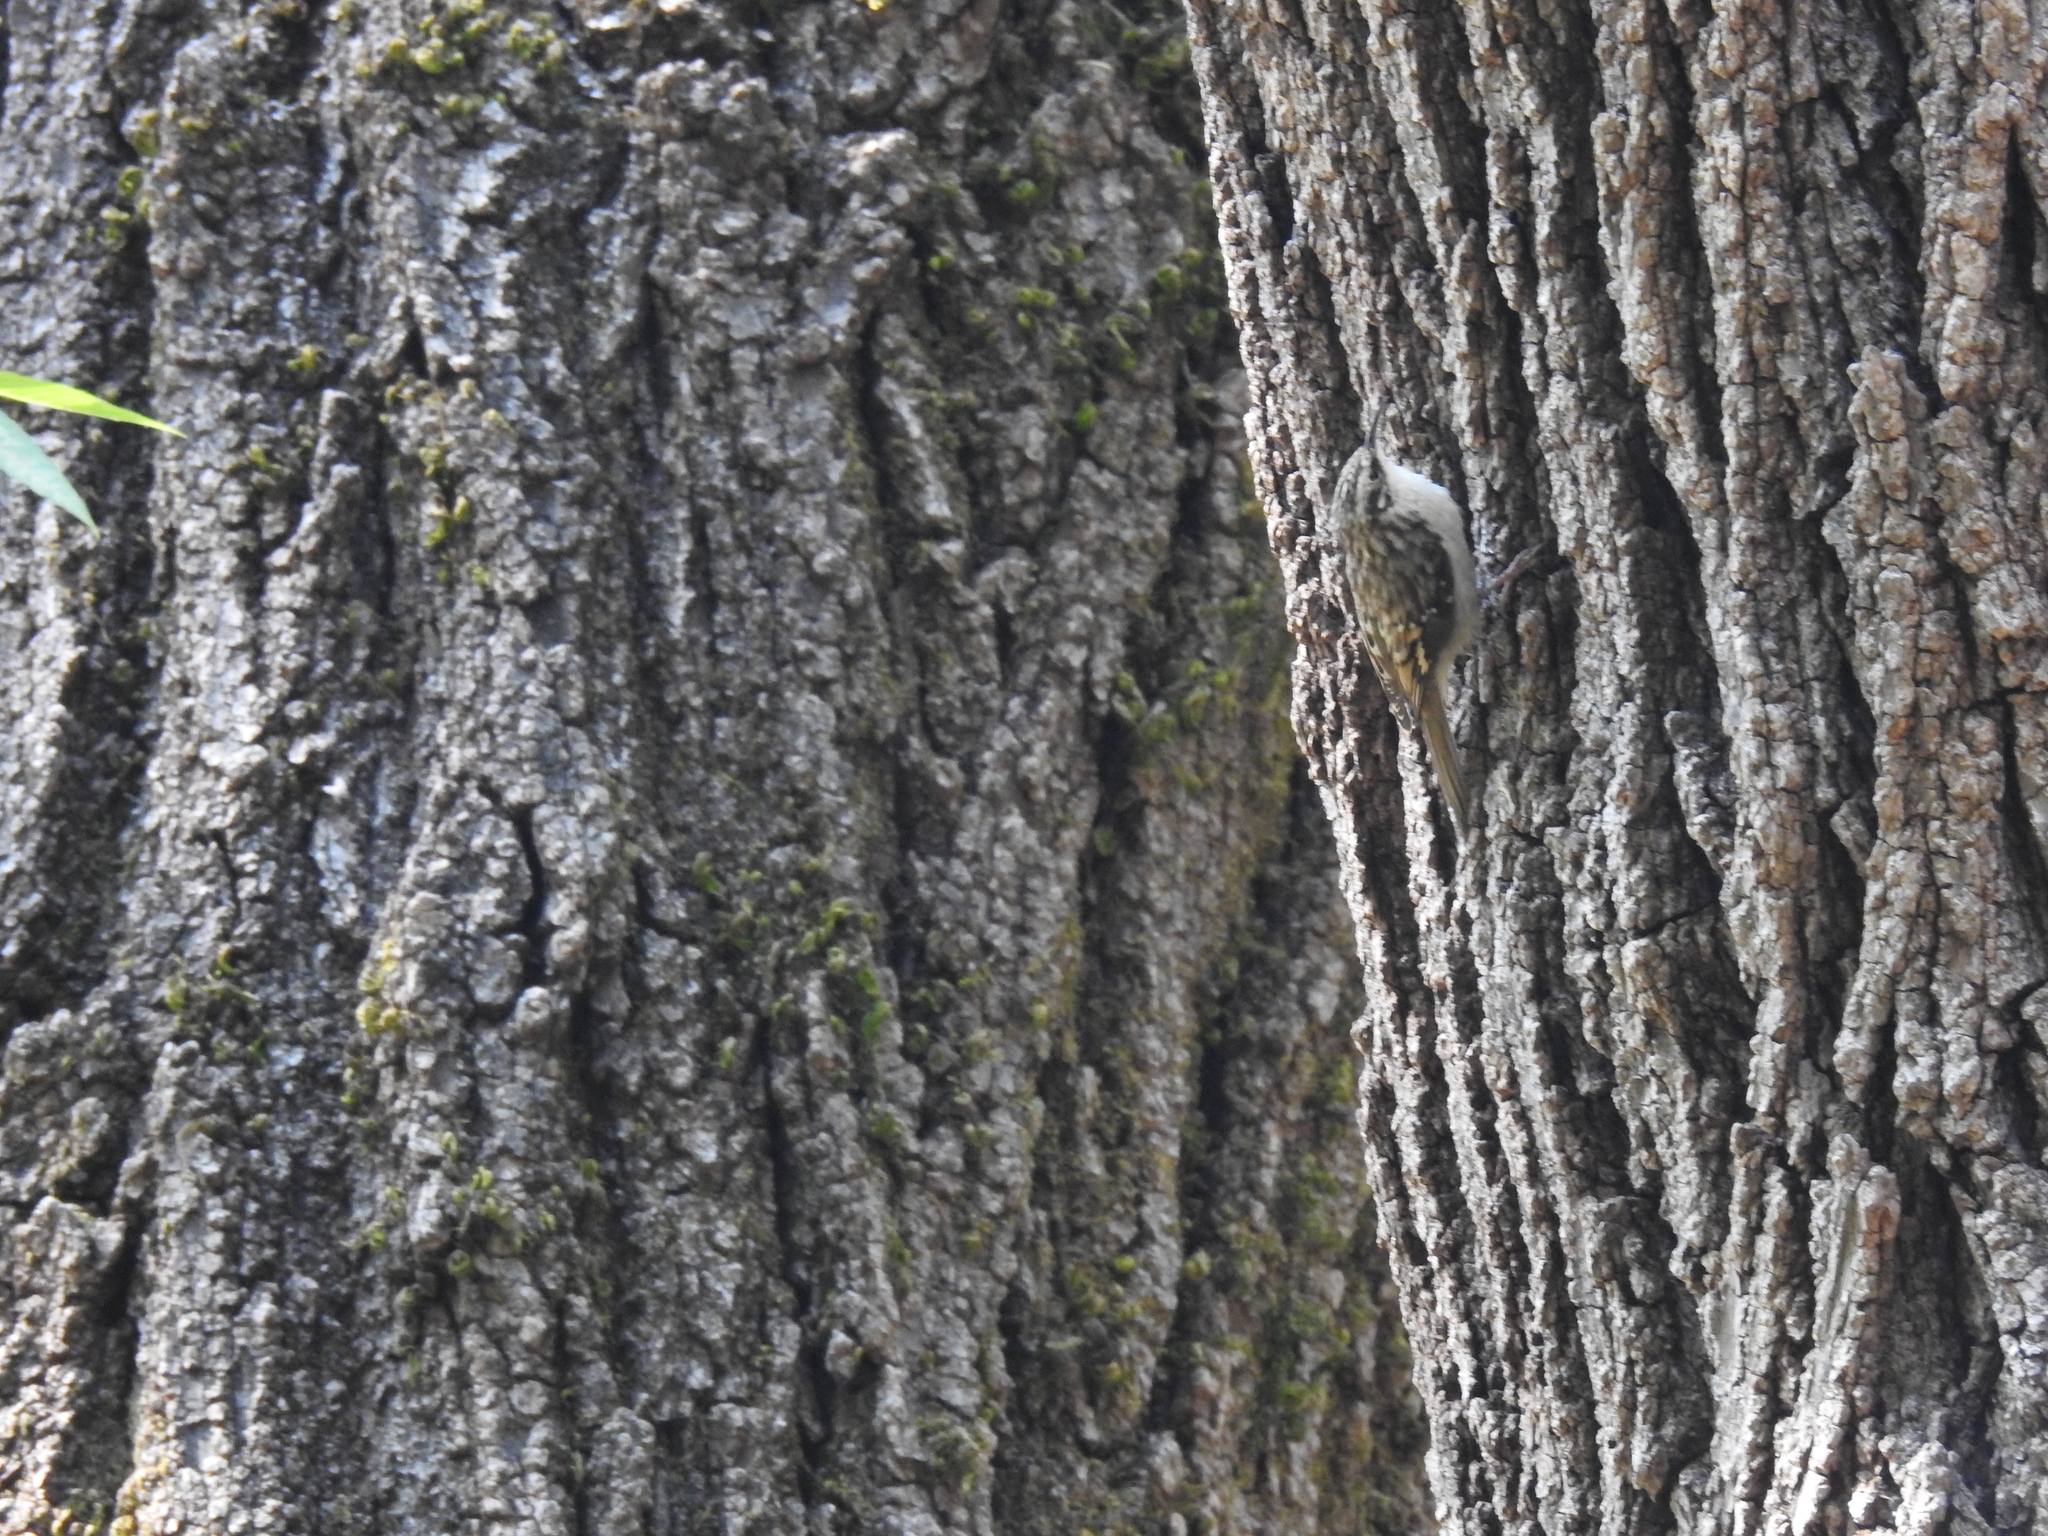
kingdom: Animalia
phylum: Chordata
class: Aves
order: Passeriformes
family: Certhiidae
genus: Certhia
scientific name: Certhia americana
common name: Brown creeper
